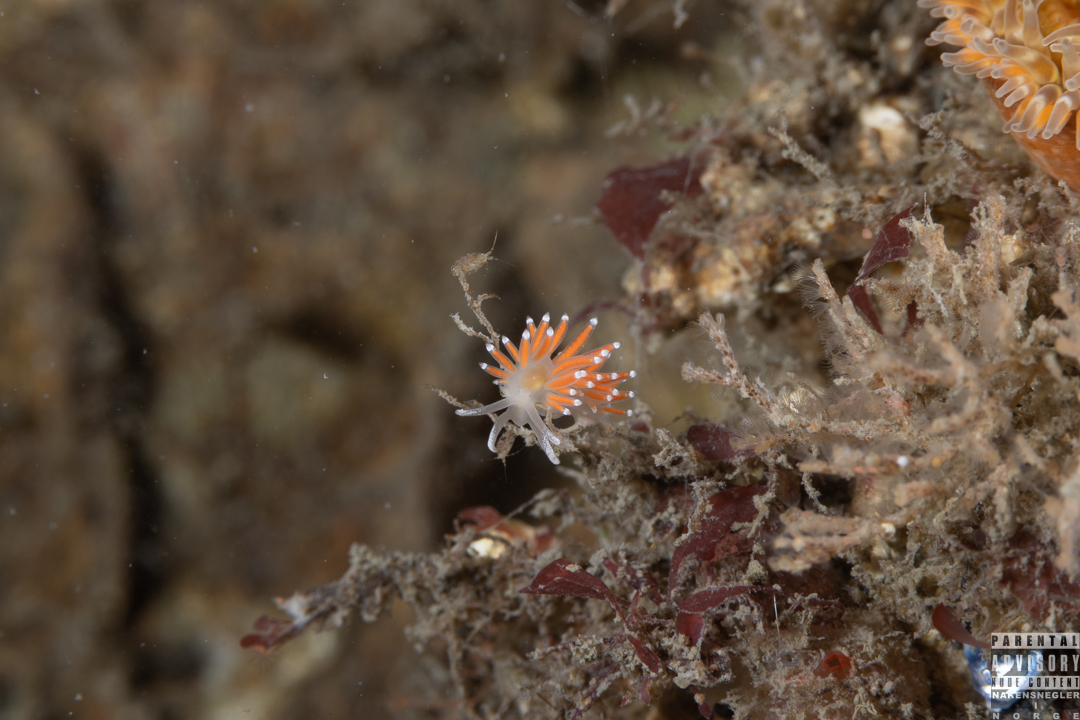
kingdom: Animalia
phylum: Mollusca
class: Gastropoda
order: Nudibranchia
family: Coryphellidae
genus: Coryphella
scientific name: Coryphella gracilis
